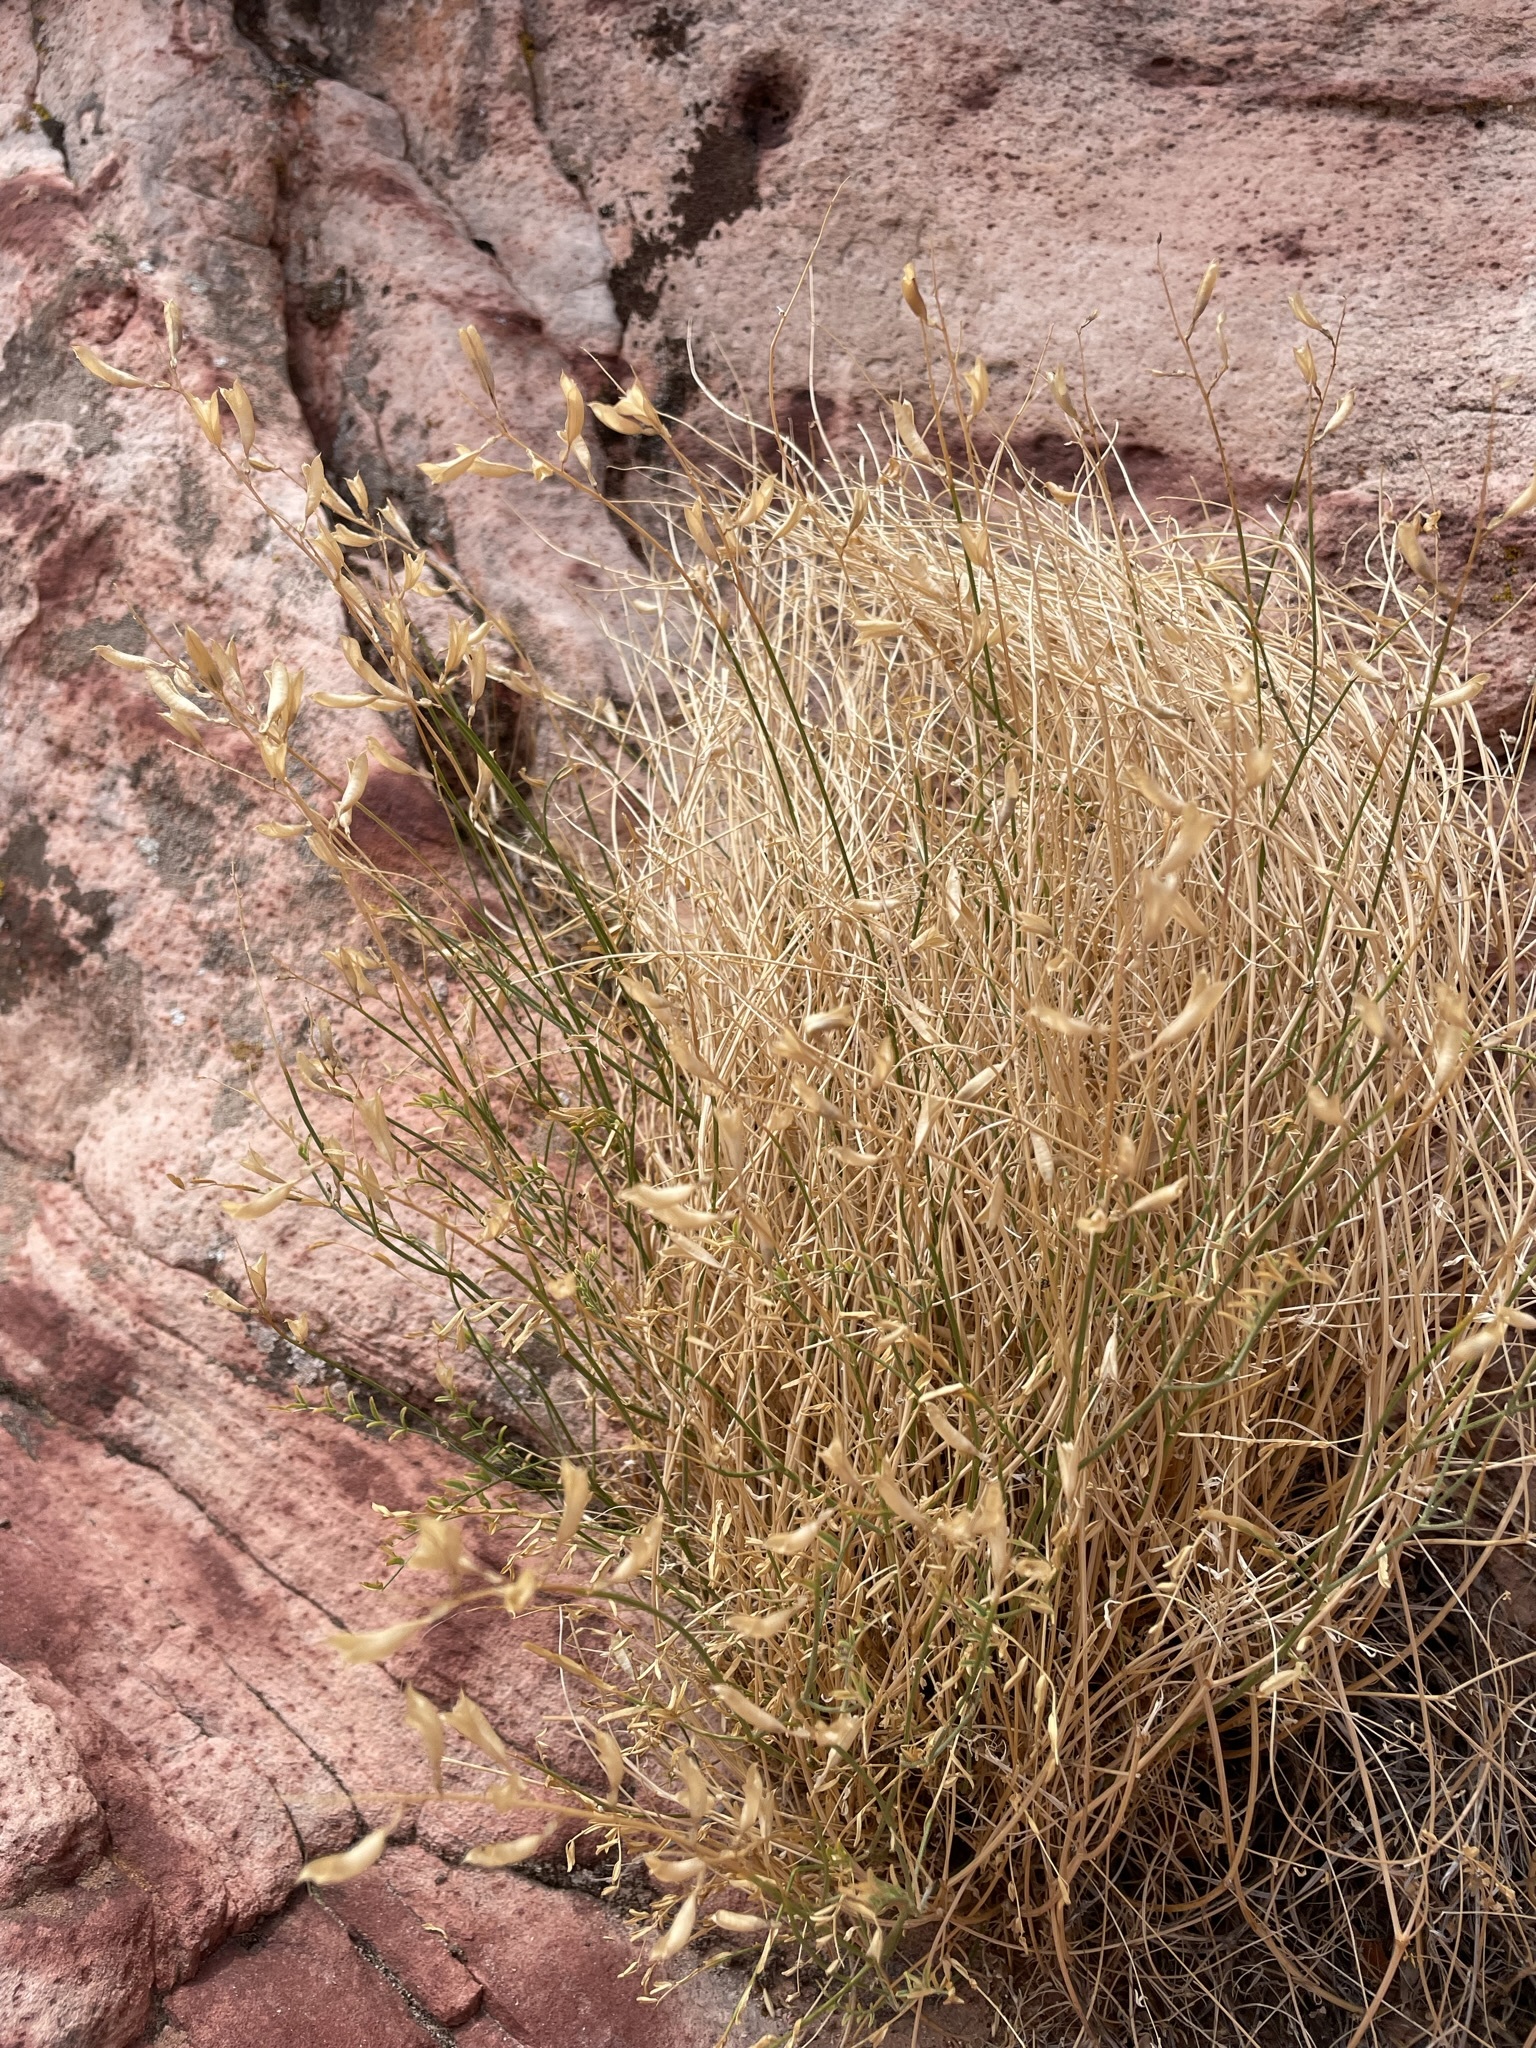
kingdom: Plantae
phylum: Tracheophyta
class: Magnoliopsida
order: Fabales
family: Fabaceae
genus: Astragalus
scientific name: Astragalus remotus
